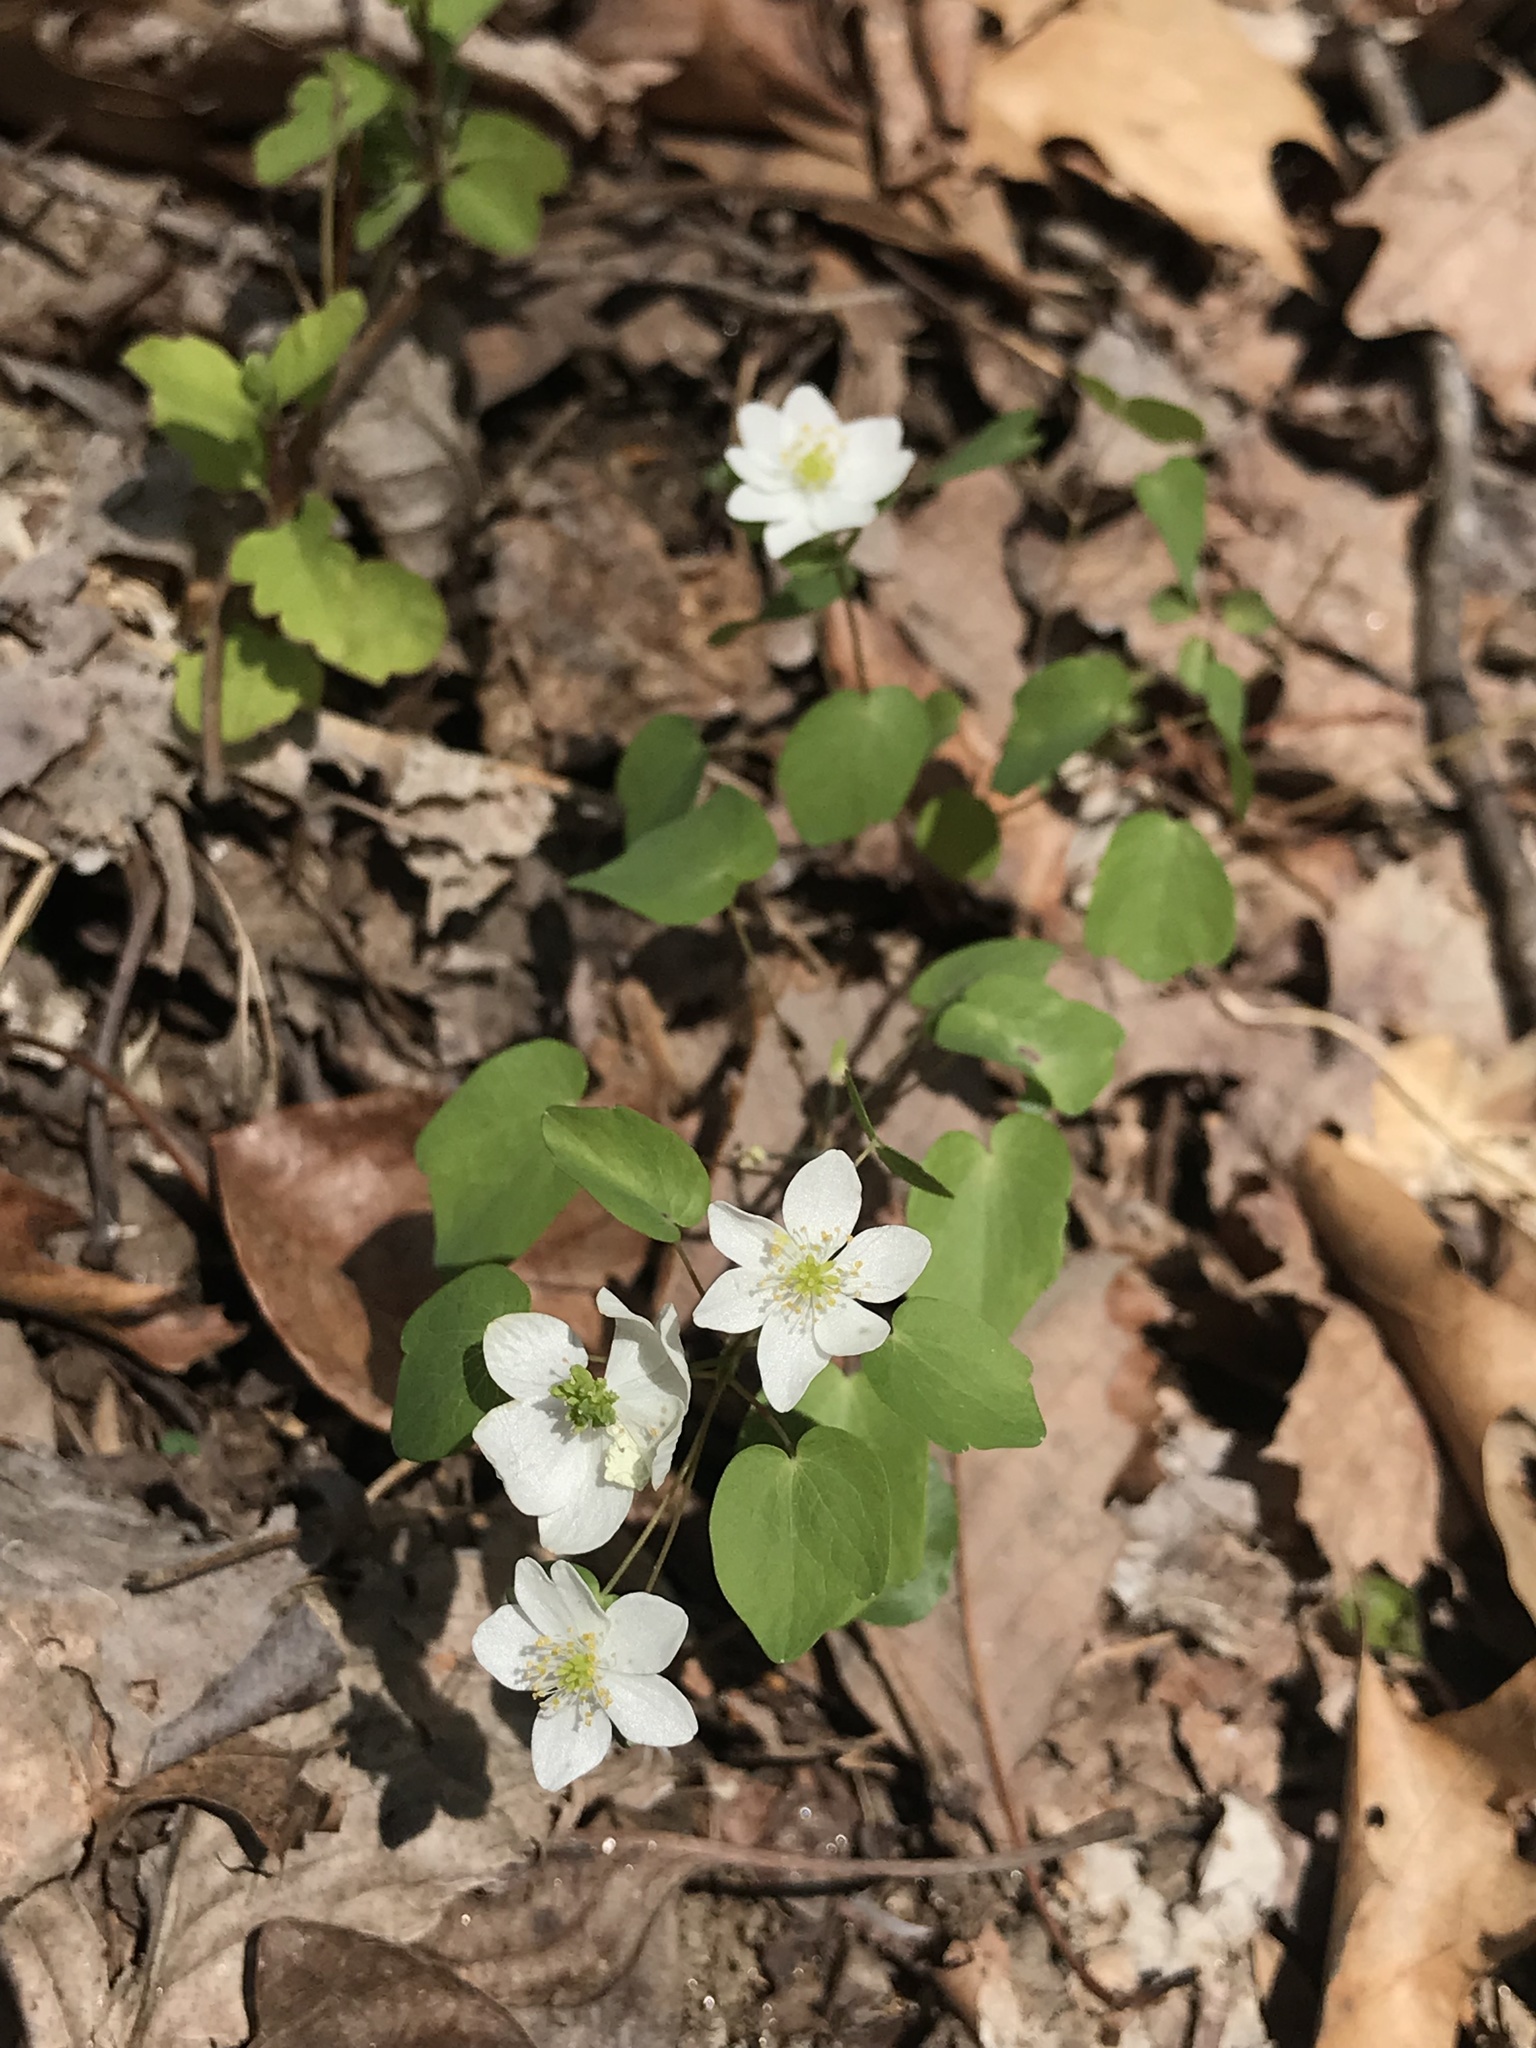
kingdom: Plantae
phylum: Tracheophyta
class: Magnoliopsida
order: Ranunculales
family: Ranunculaceae
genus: Thalictrum
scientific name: Thalictrum thalictroides
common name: Rue-anemone
